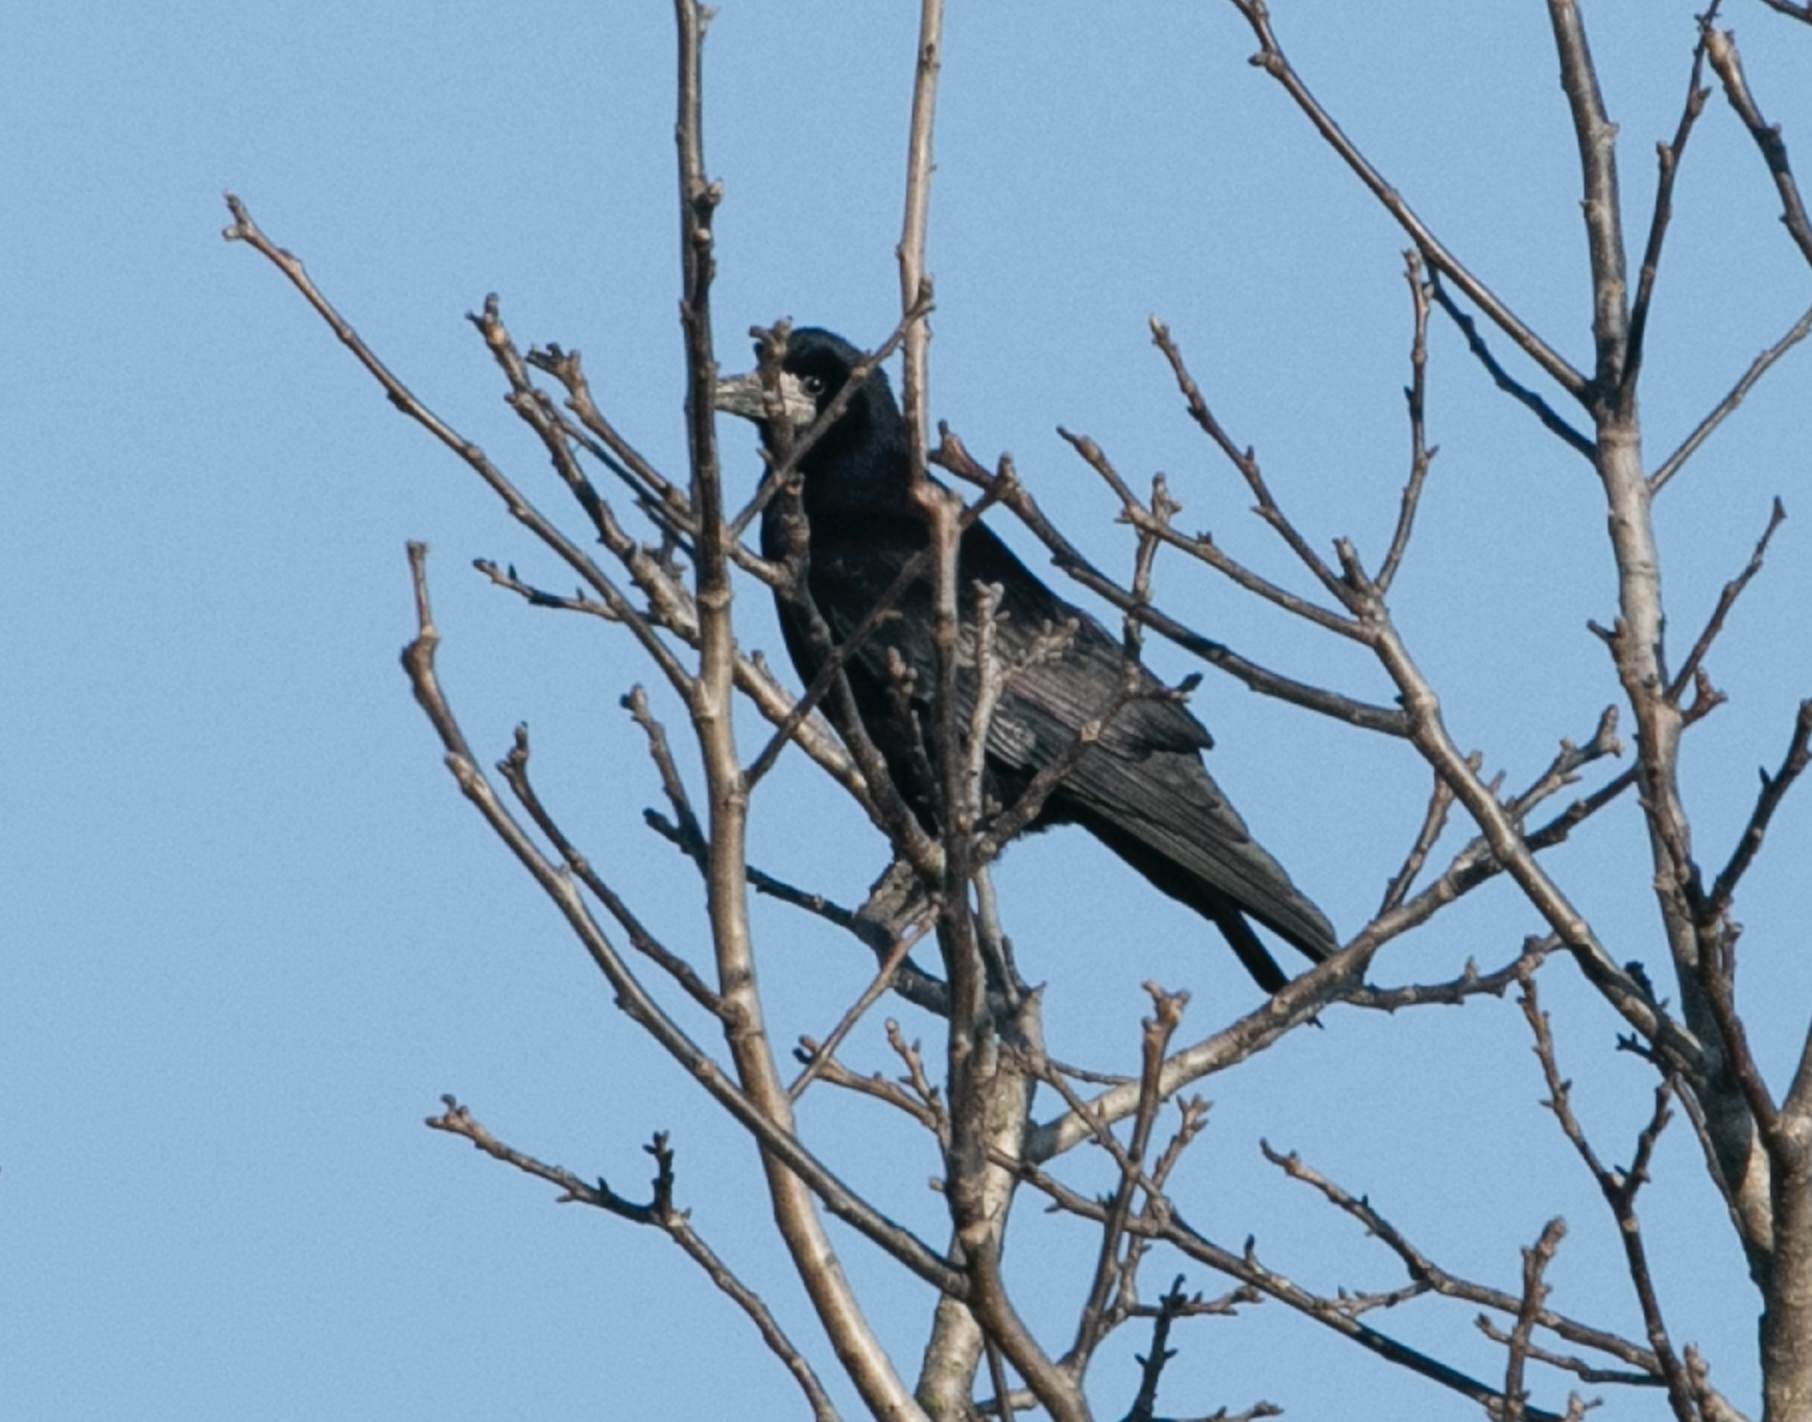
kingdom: Animalia
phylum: Chordata
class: Aves
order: Passeriformes
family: Corvidae
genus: Corvus
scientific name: Corvus frugilegus
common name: Rook
